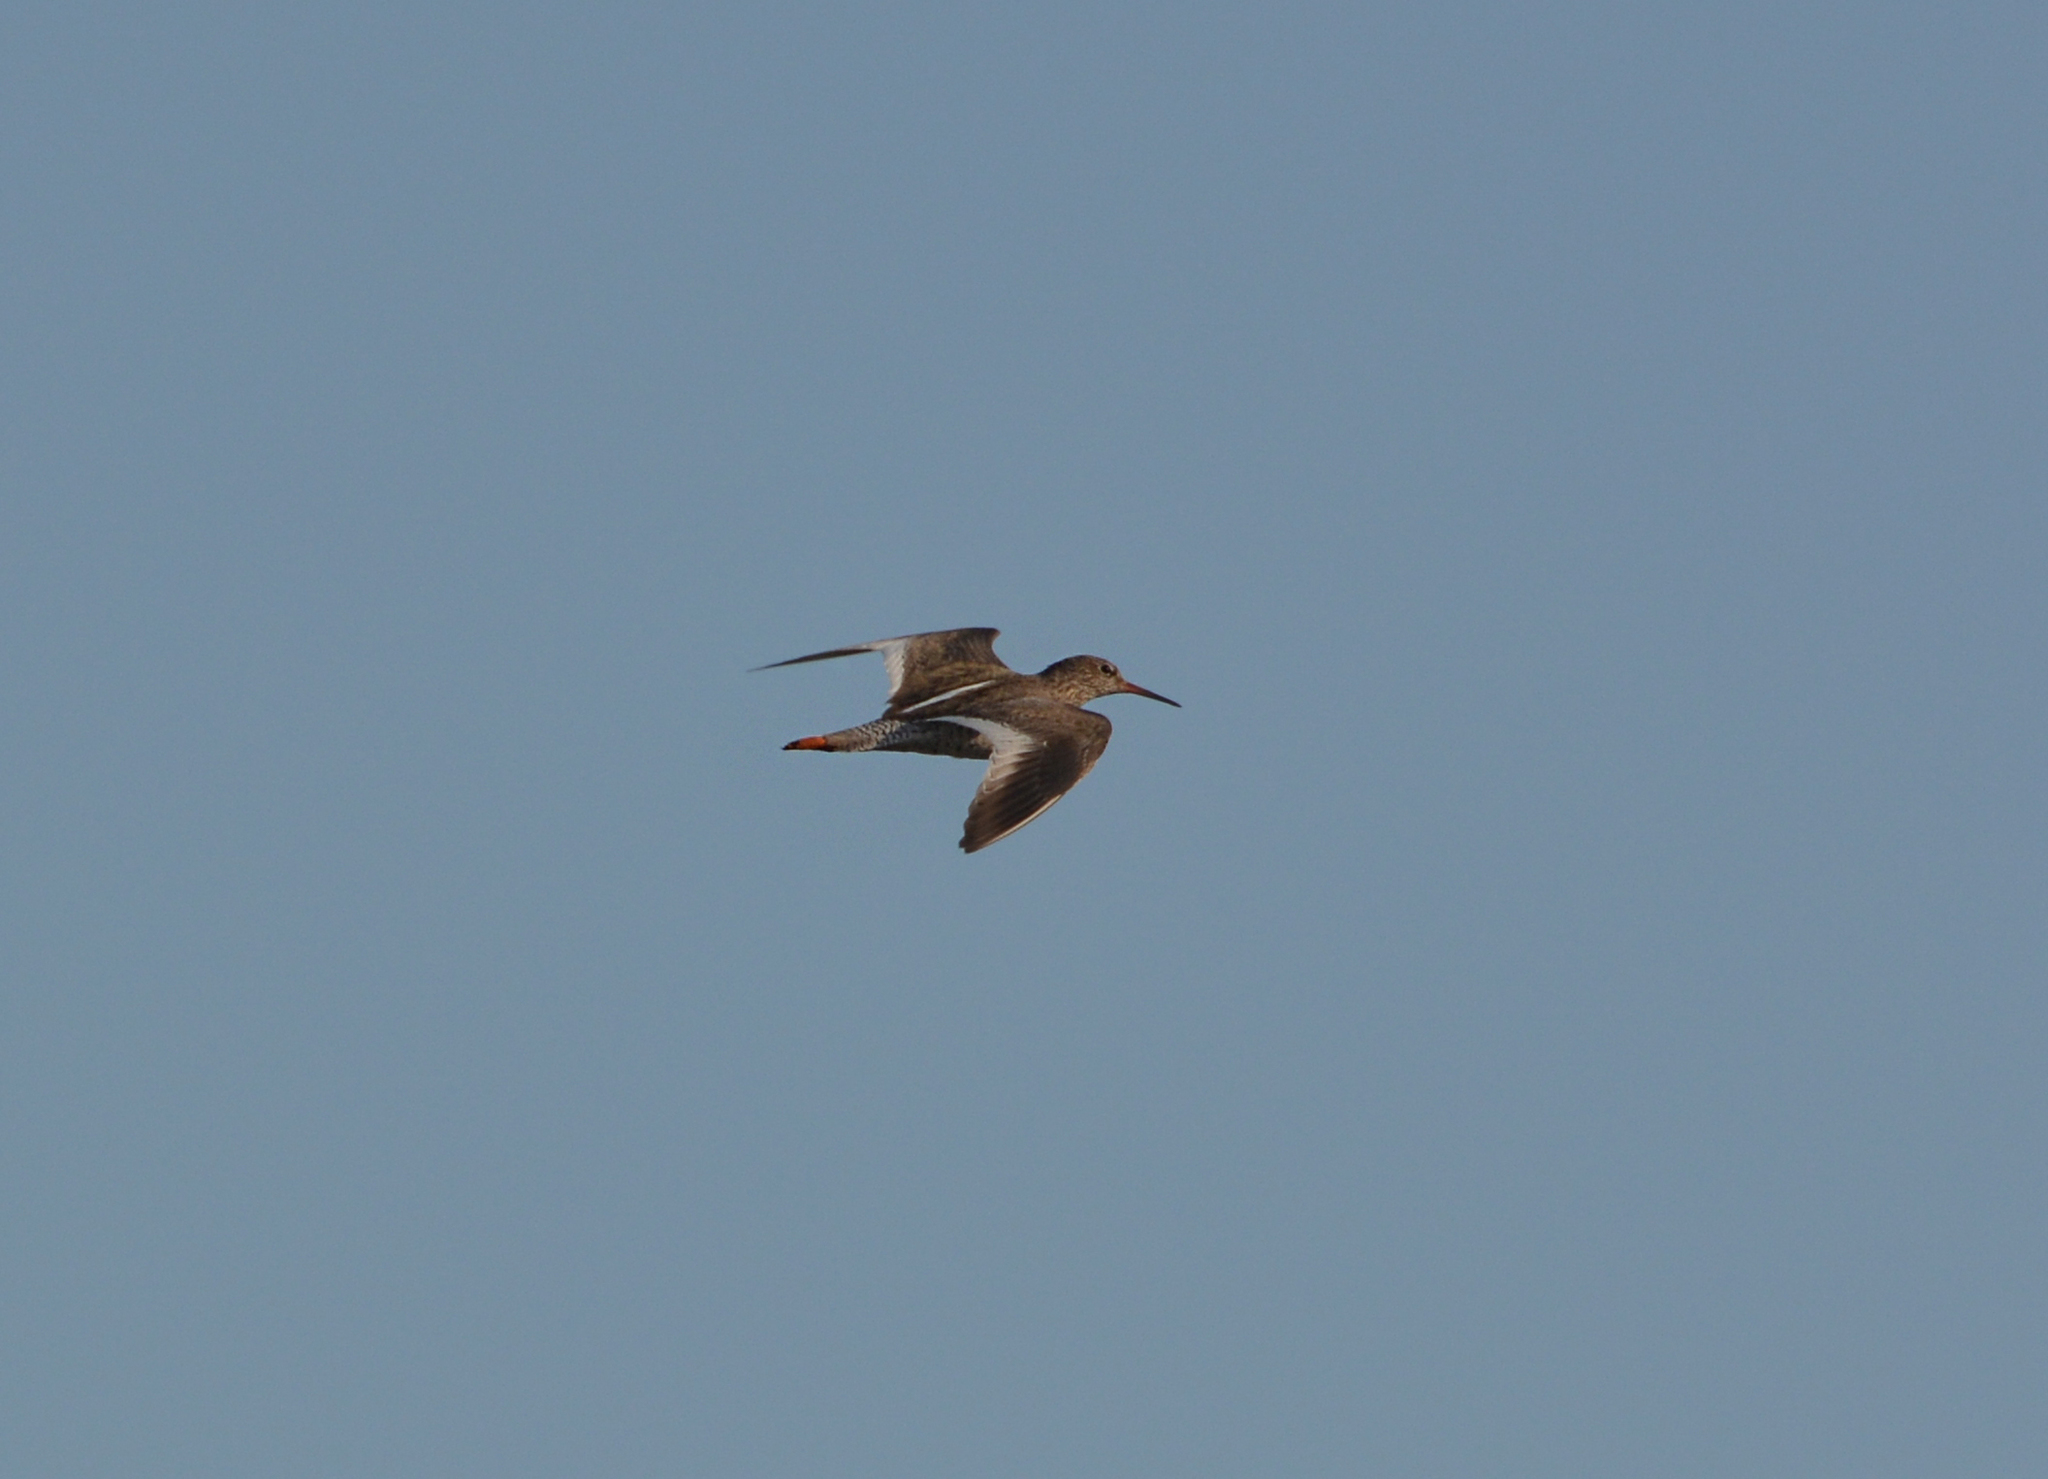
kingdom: Animalia
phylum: Chordata
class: Aves
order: Charadriiformes
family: Scolopacidae
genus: Tringa
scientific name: Tringa totanus
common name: Common redshank
